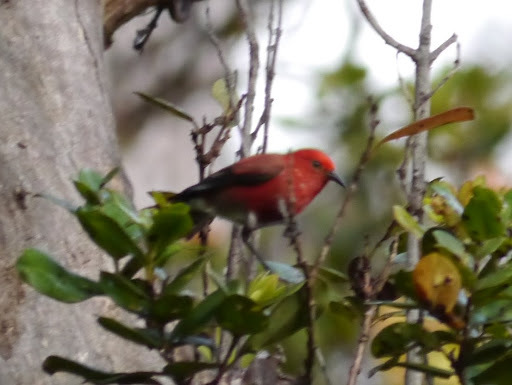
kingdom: Animalia
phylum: Chordata
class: Aves
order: Passeriformes
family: Fringillidae
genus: Himatione
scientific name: Himatione sanguinea
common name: Apapane
